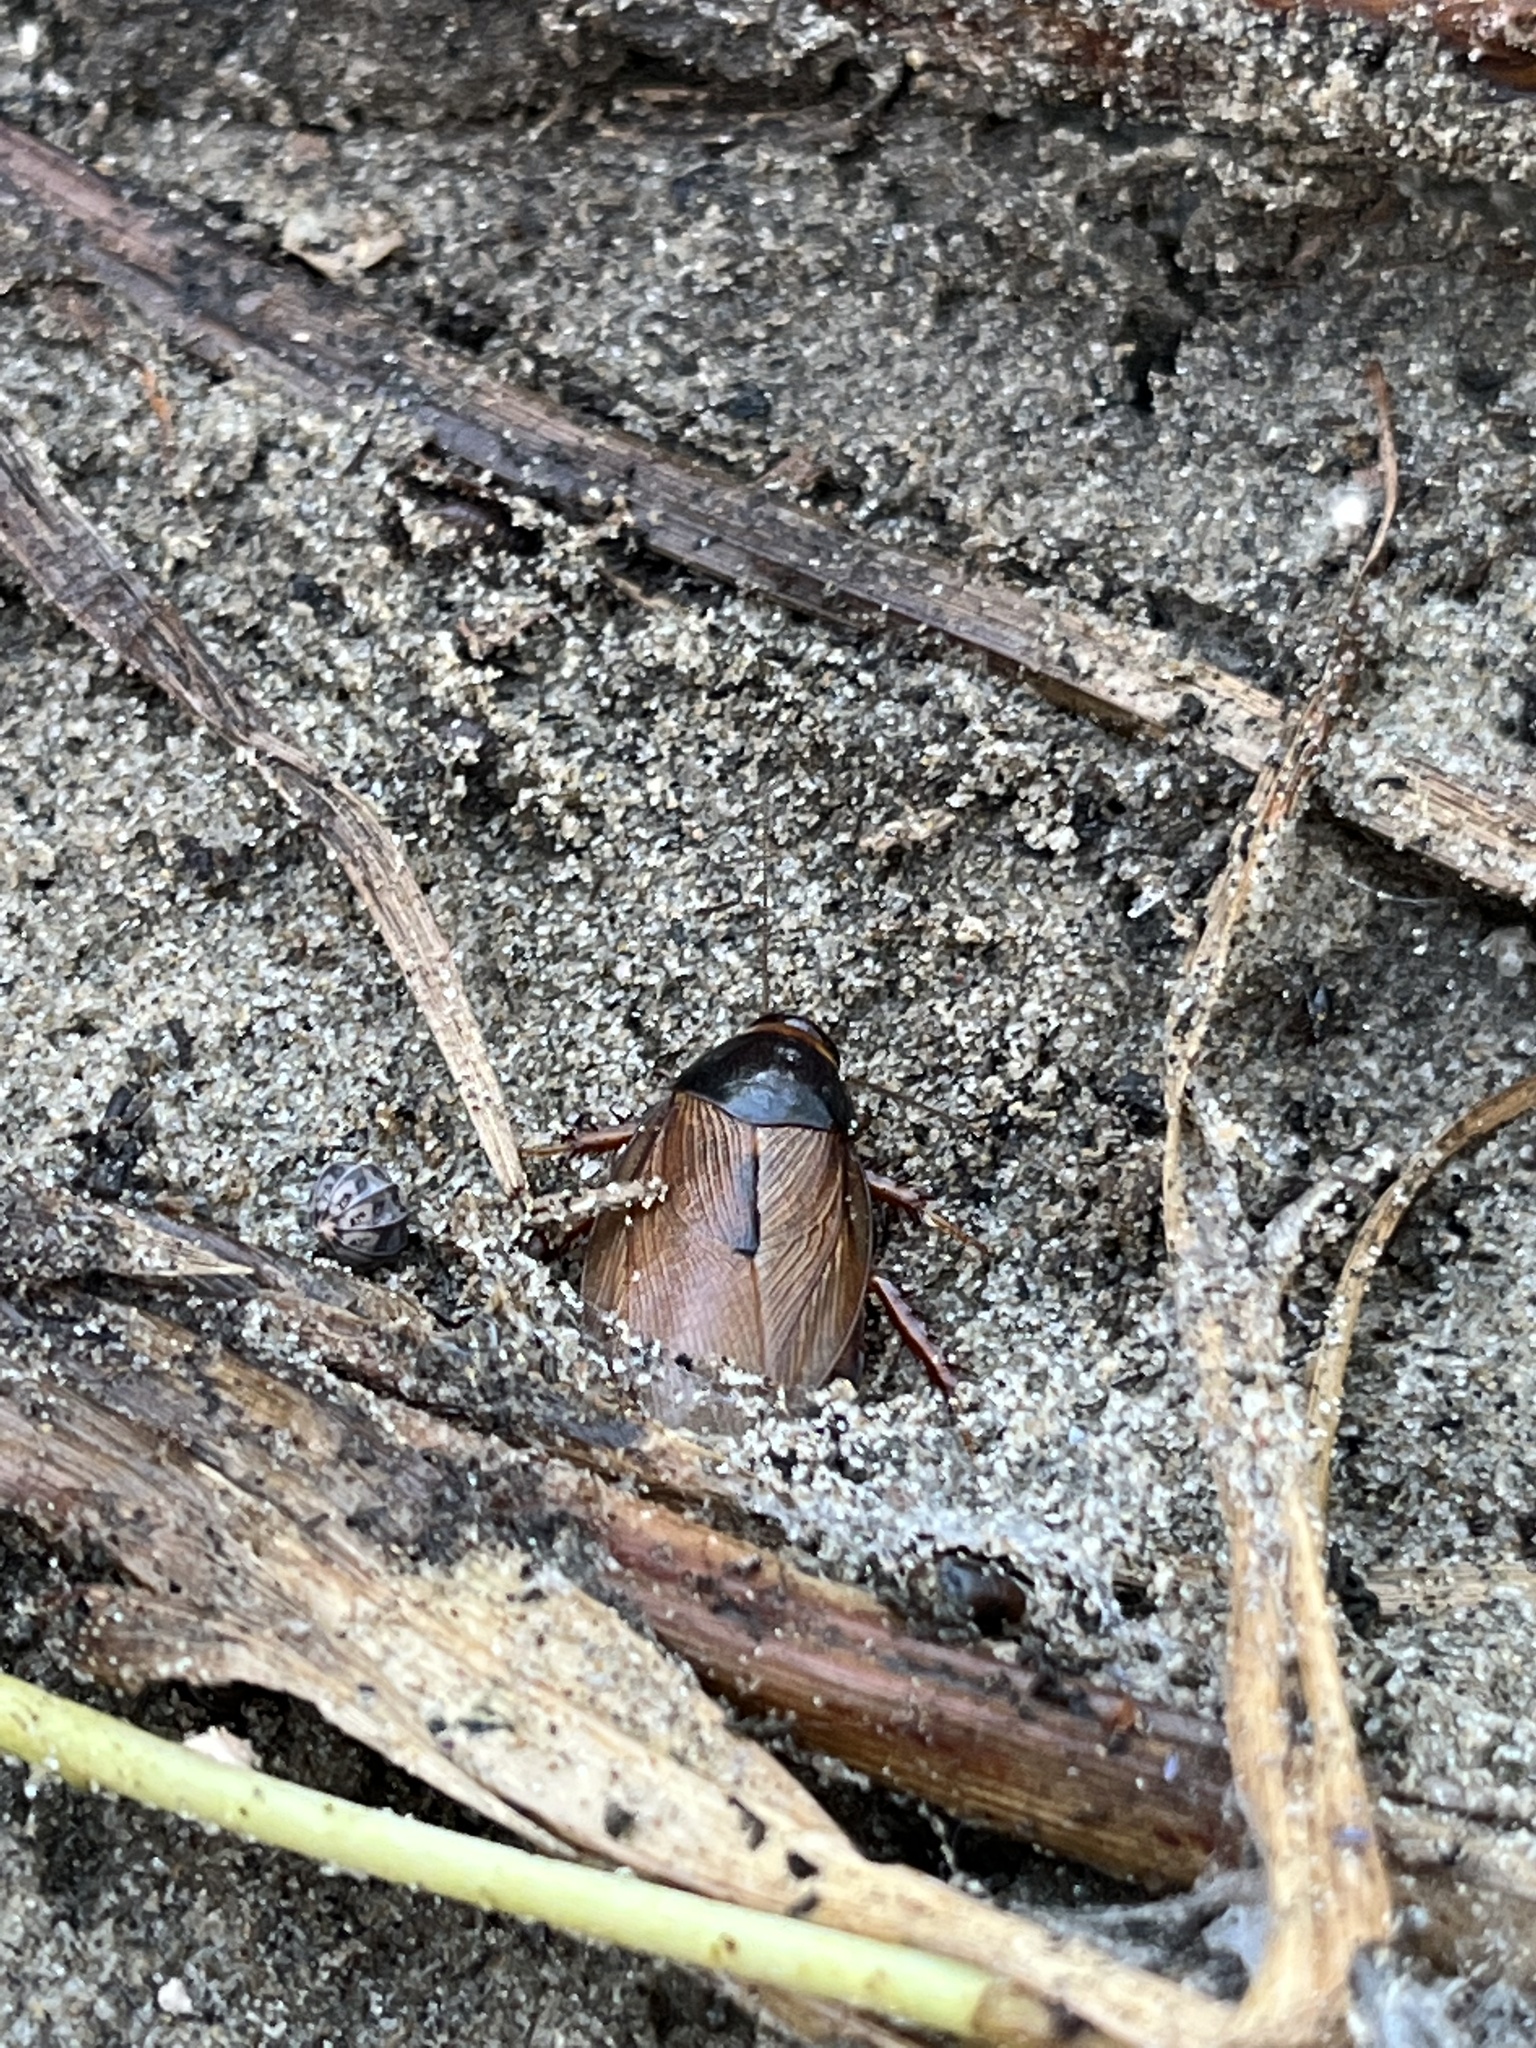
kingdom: Animalia
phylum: Arthropoda
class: Insecta
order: Blattodea
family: Blaberidae
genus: Pycnoscelus
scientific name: Pycnoscelus surinamensis
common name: Surinam cockroach
